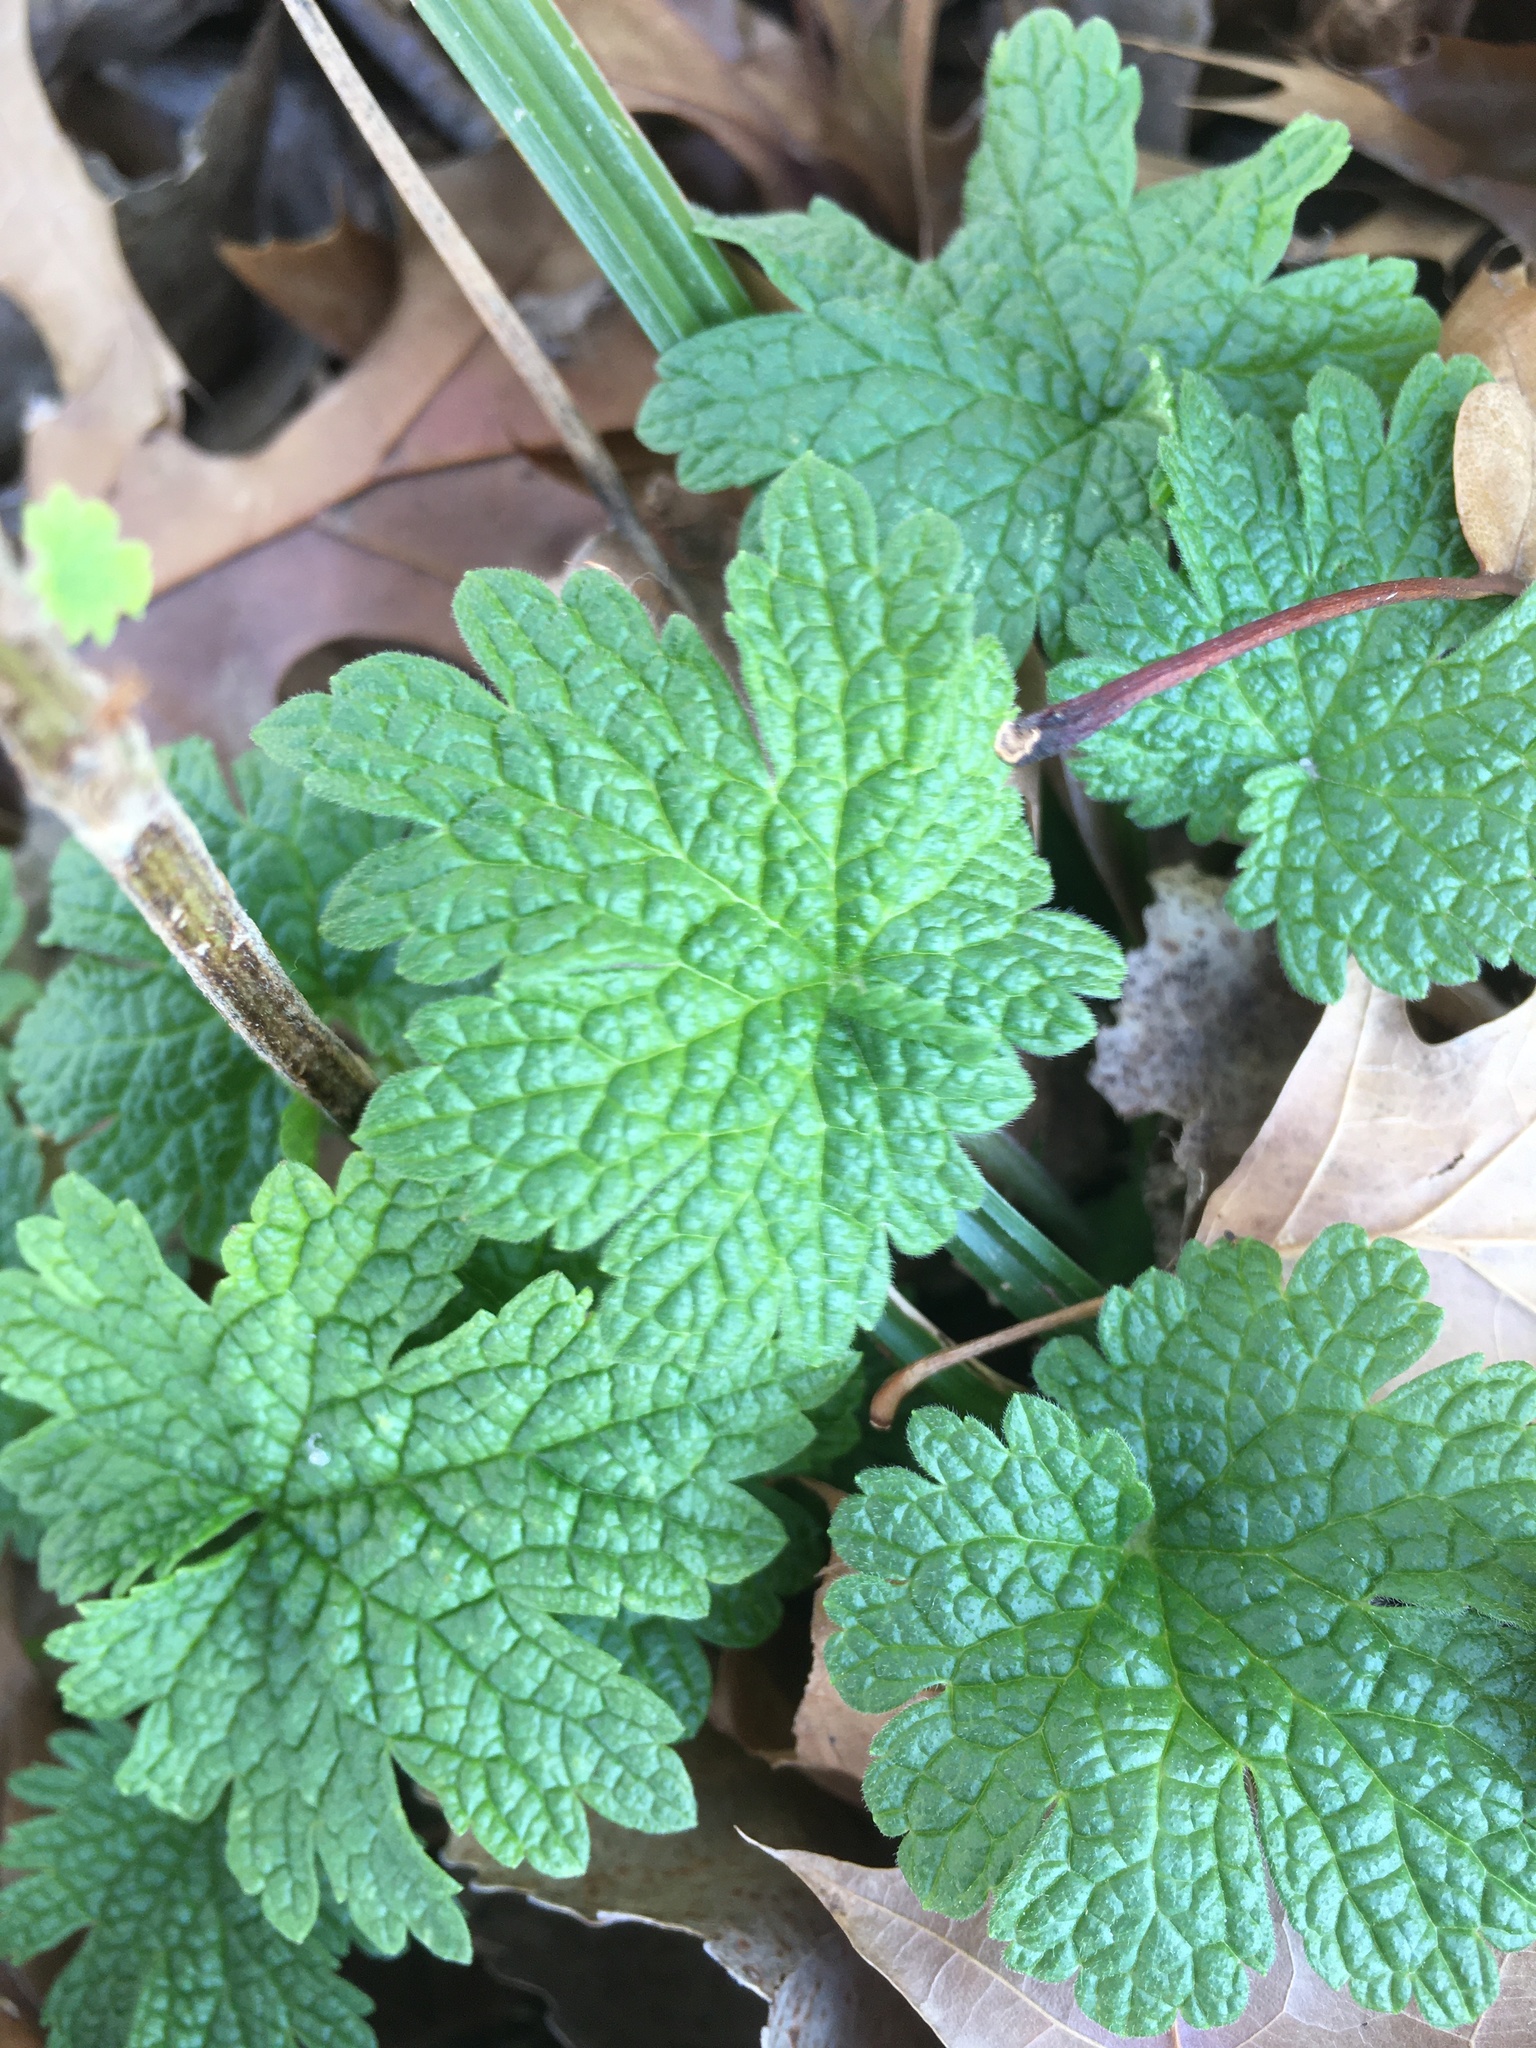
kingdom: Plantae
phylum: Tracheophyta
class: Magnoliopsida
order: Lamiales
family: Lamiaceae
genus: Leonurus
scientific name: Leonurus cardiaca
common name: Motherwort
